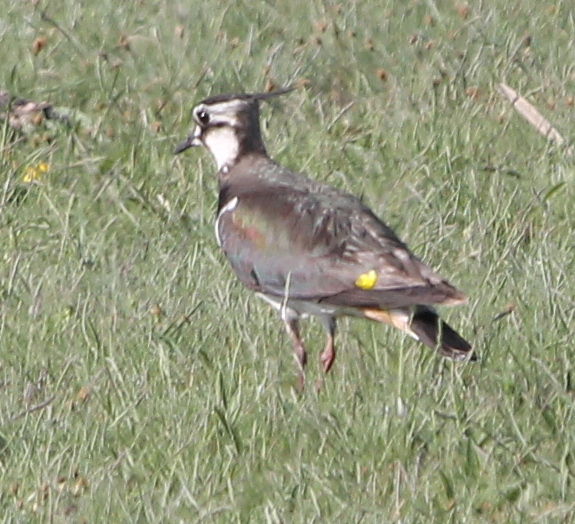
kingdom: Animalia
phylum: Chordata
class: Aves
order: Charadriiformes
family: Charadriidae
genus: Vanellus
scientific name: Vanellus vanellus
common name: Northern lapwing
